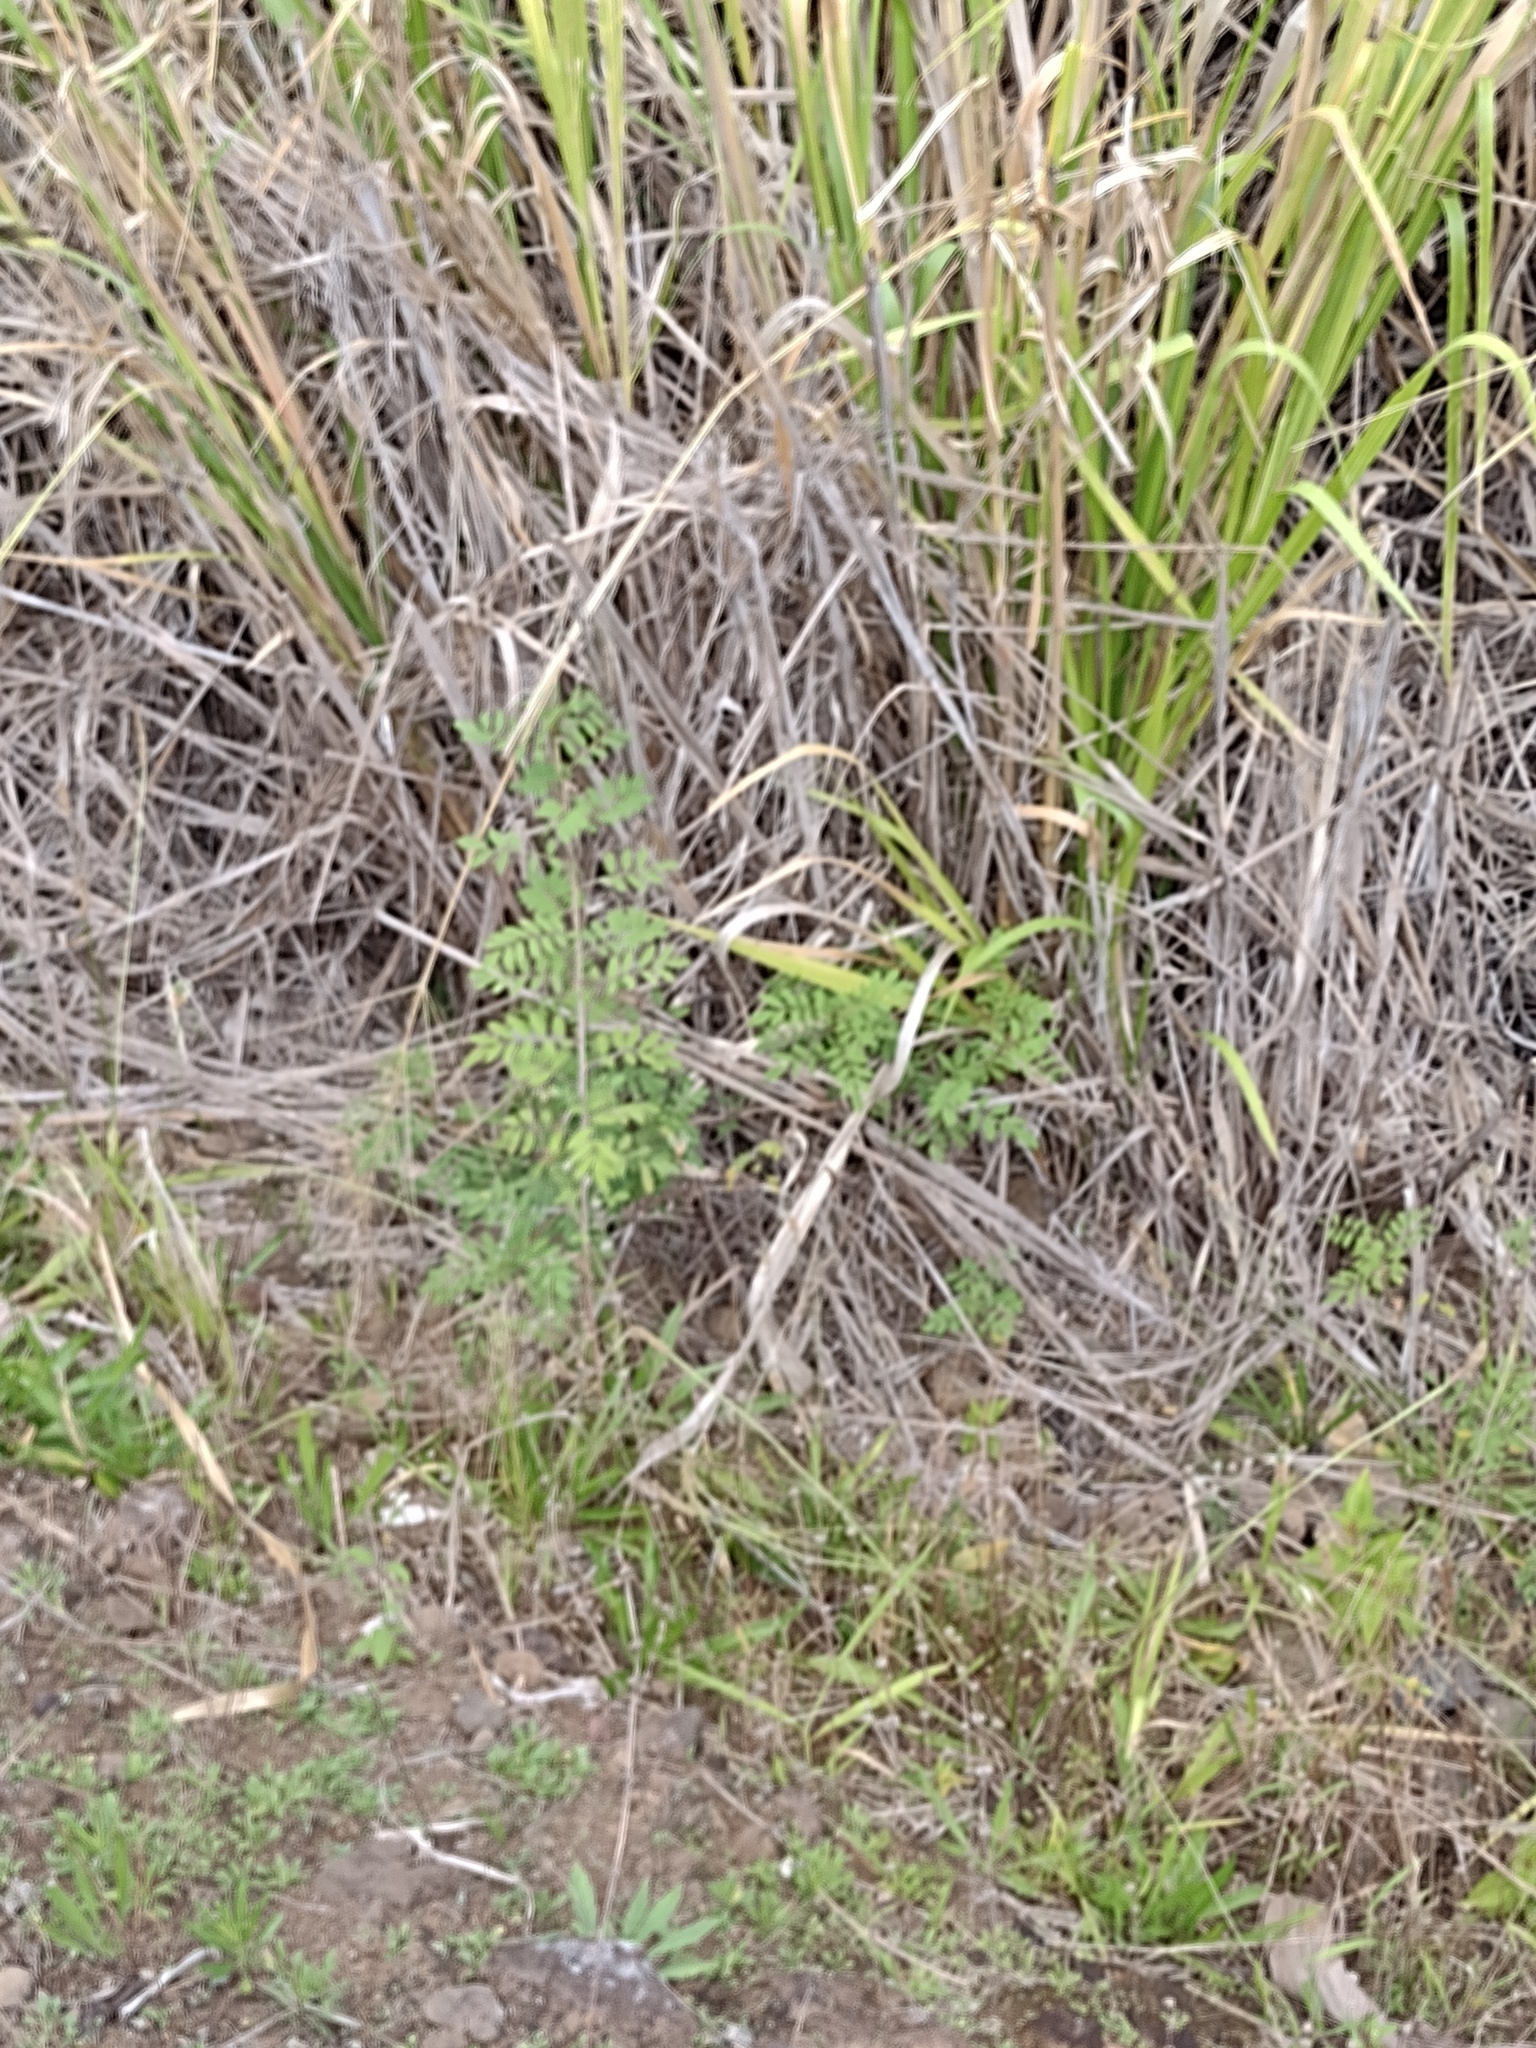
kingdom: Plantae
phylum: Tracheophyta
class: Magnoliopsida
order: Fabales
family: Fabaceae
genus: Indigofera
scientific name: Indigofera suffruticosa
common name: Anil de pasto
